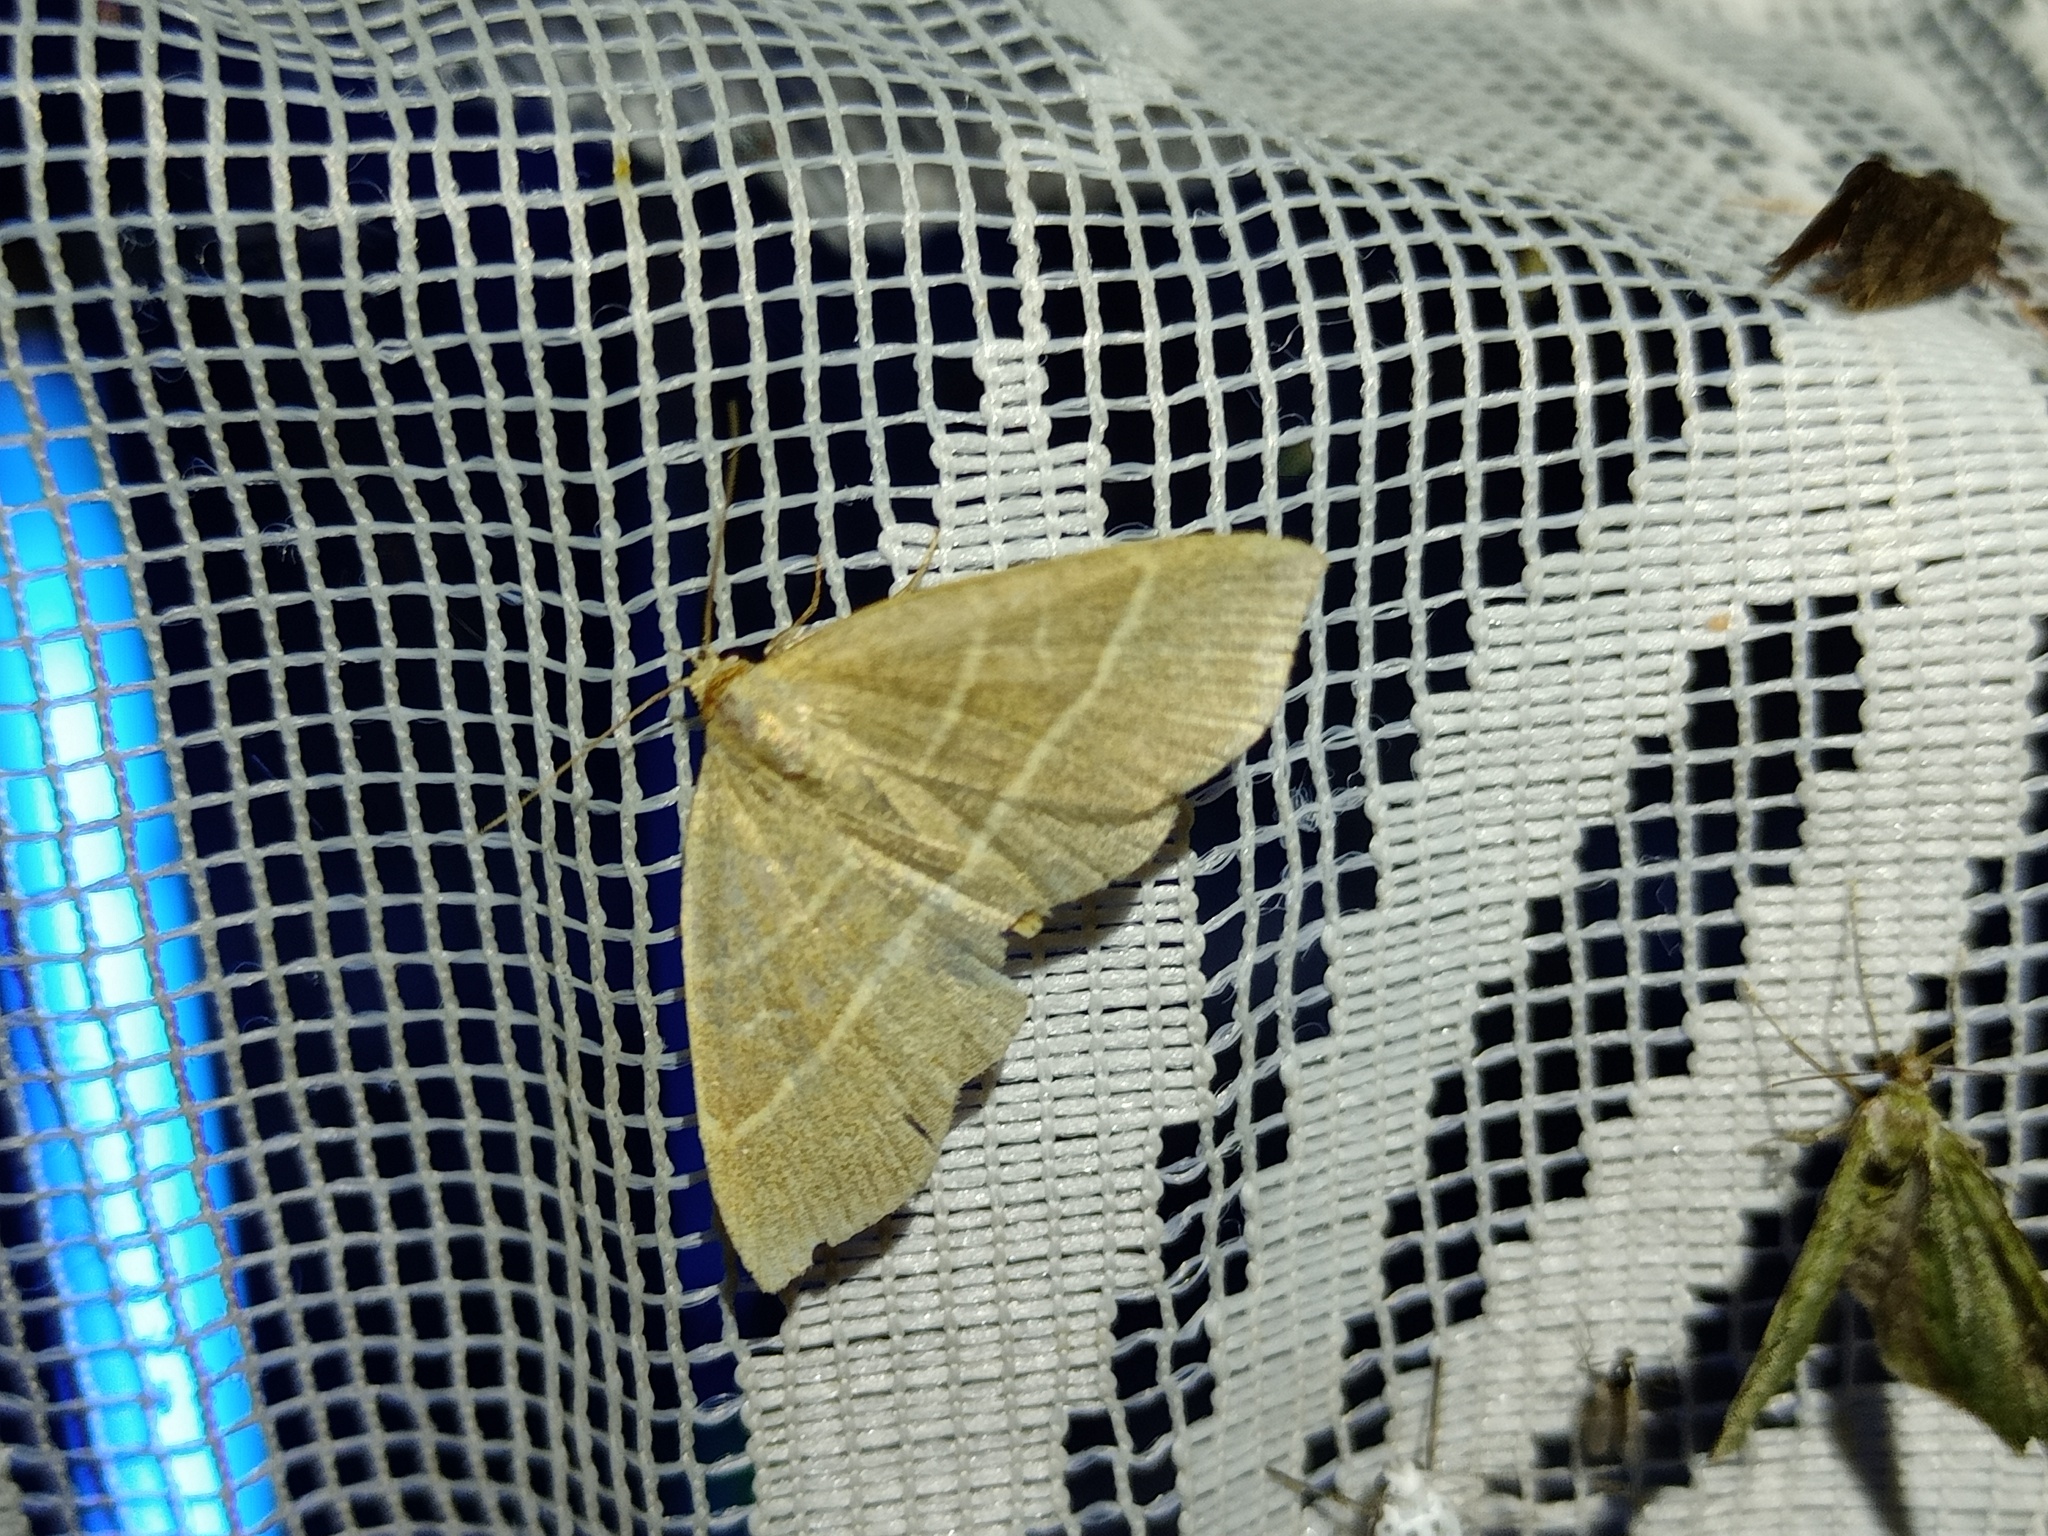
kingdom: Animalia
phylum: Arthropoda
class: Insecta
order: Lepidoptera
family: Erebidae
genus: Trisateles
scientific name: Trisateles emortualis
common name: Olive crescent
